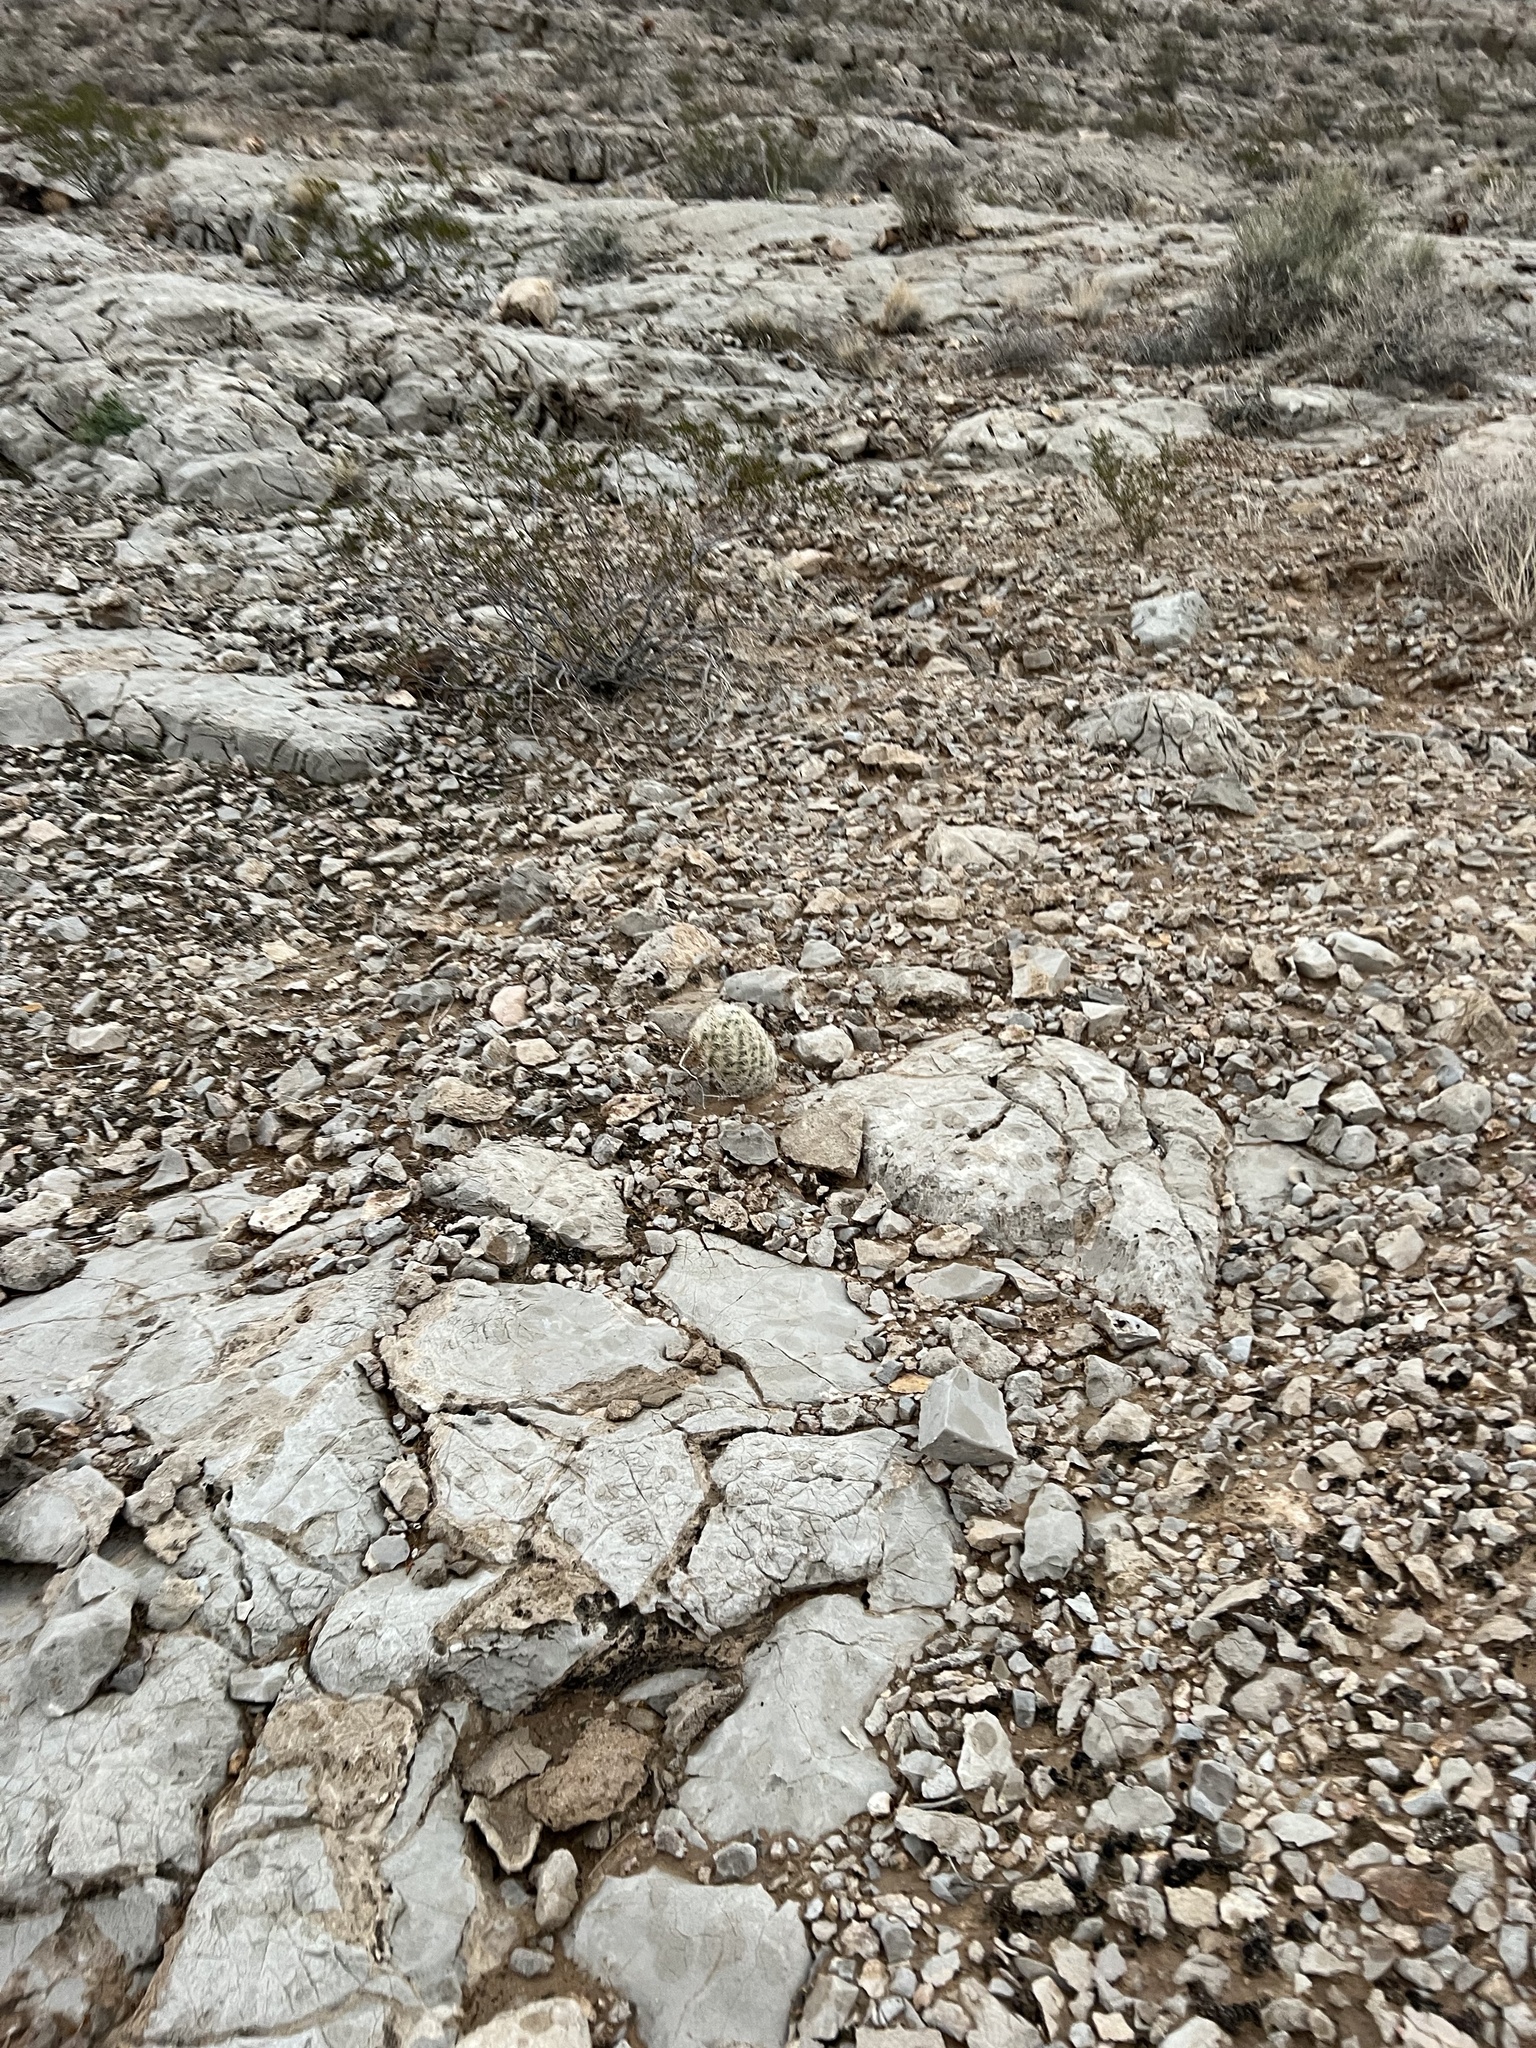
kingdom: Plantae
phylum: Tracheophyta
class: Magnoliopsida
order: Caryophyllales
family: Cactaceae
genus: Pelecyphora
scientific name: Pelecyphora dasyacantha
